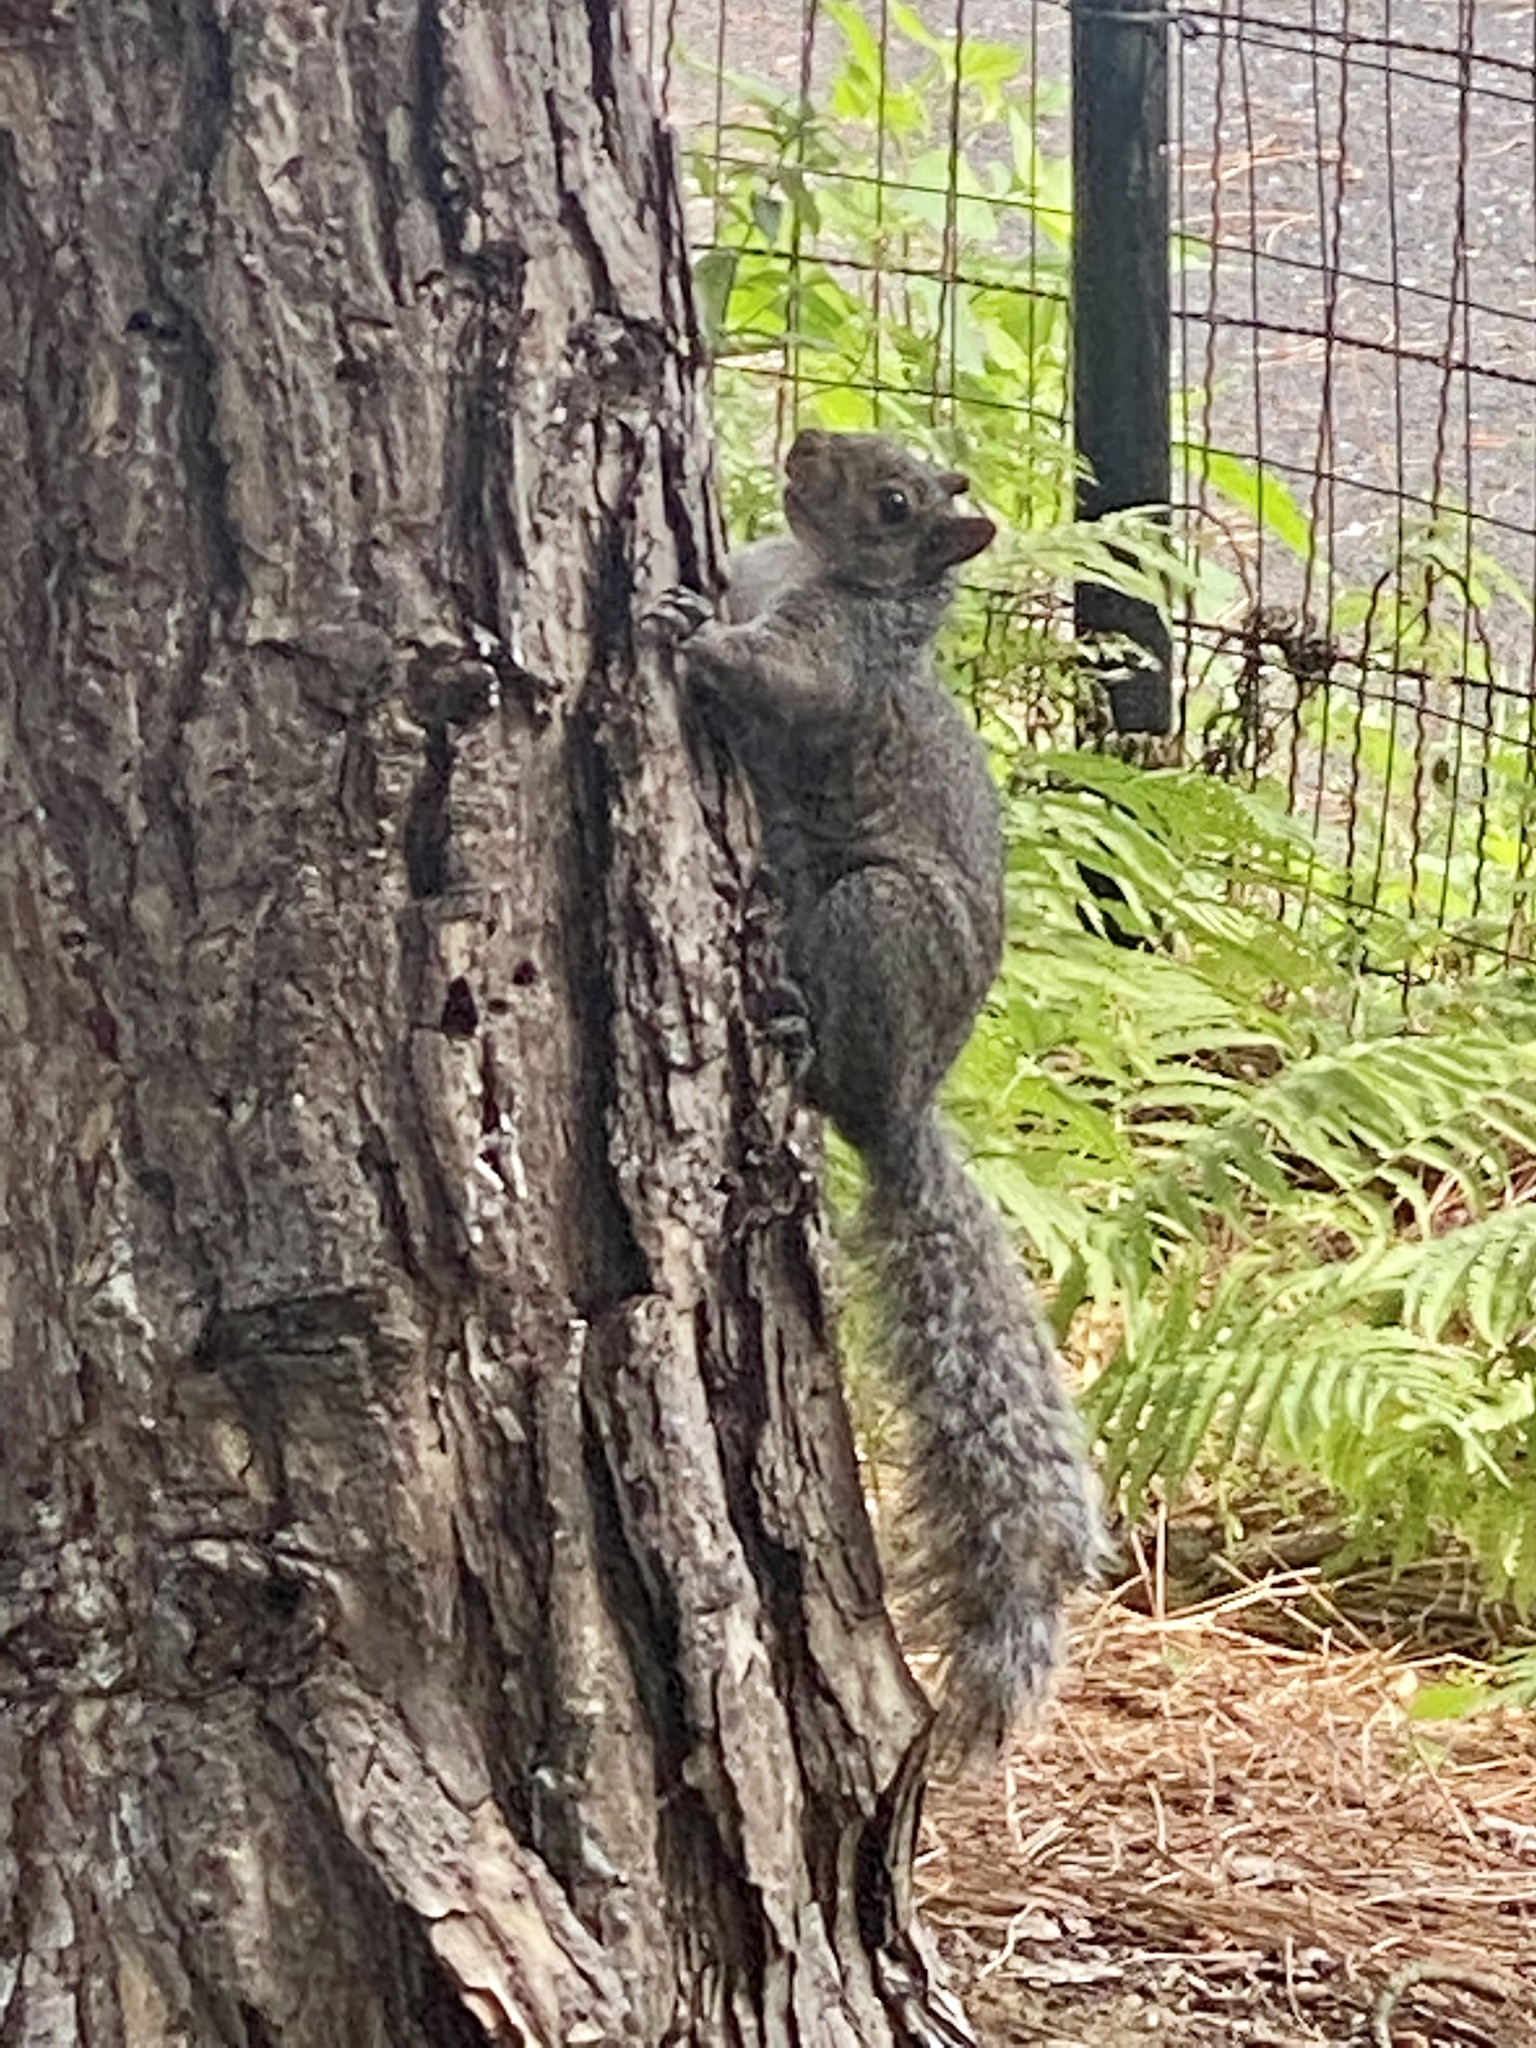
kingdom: Animalia
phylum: Chordata
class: Mammalia
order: Rodentia
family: Sciuridae
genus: Sciurus
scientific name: Sciurus carolinensis
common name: Eastern gray squirrel
